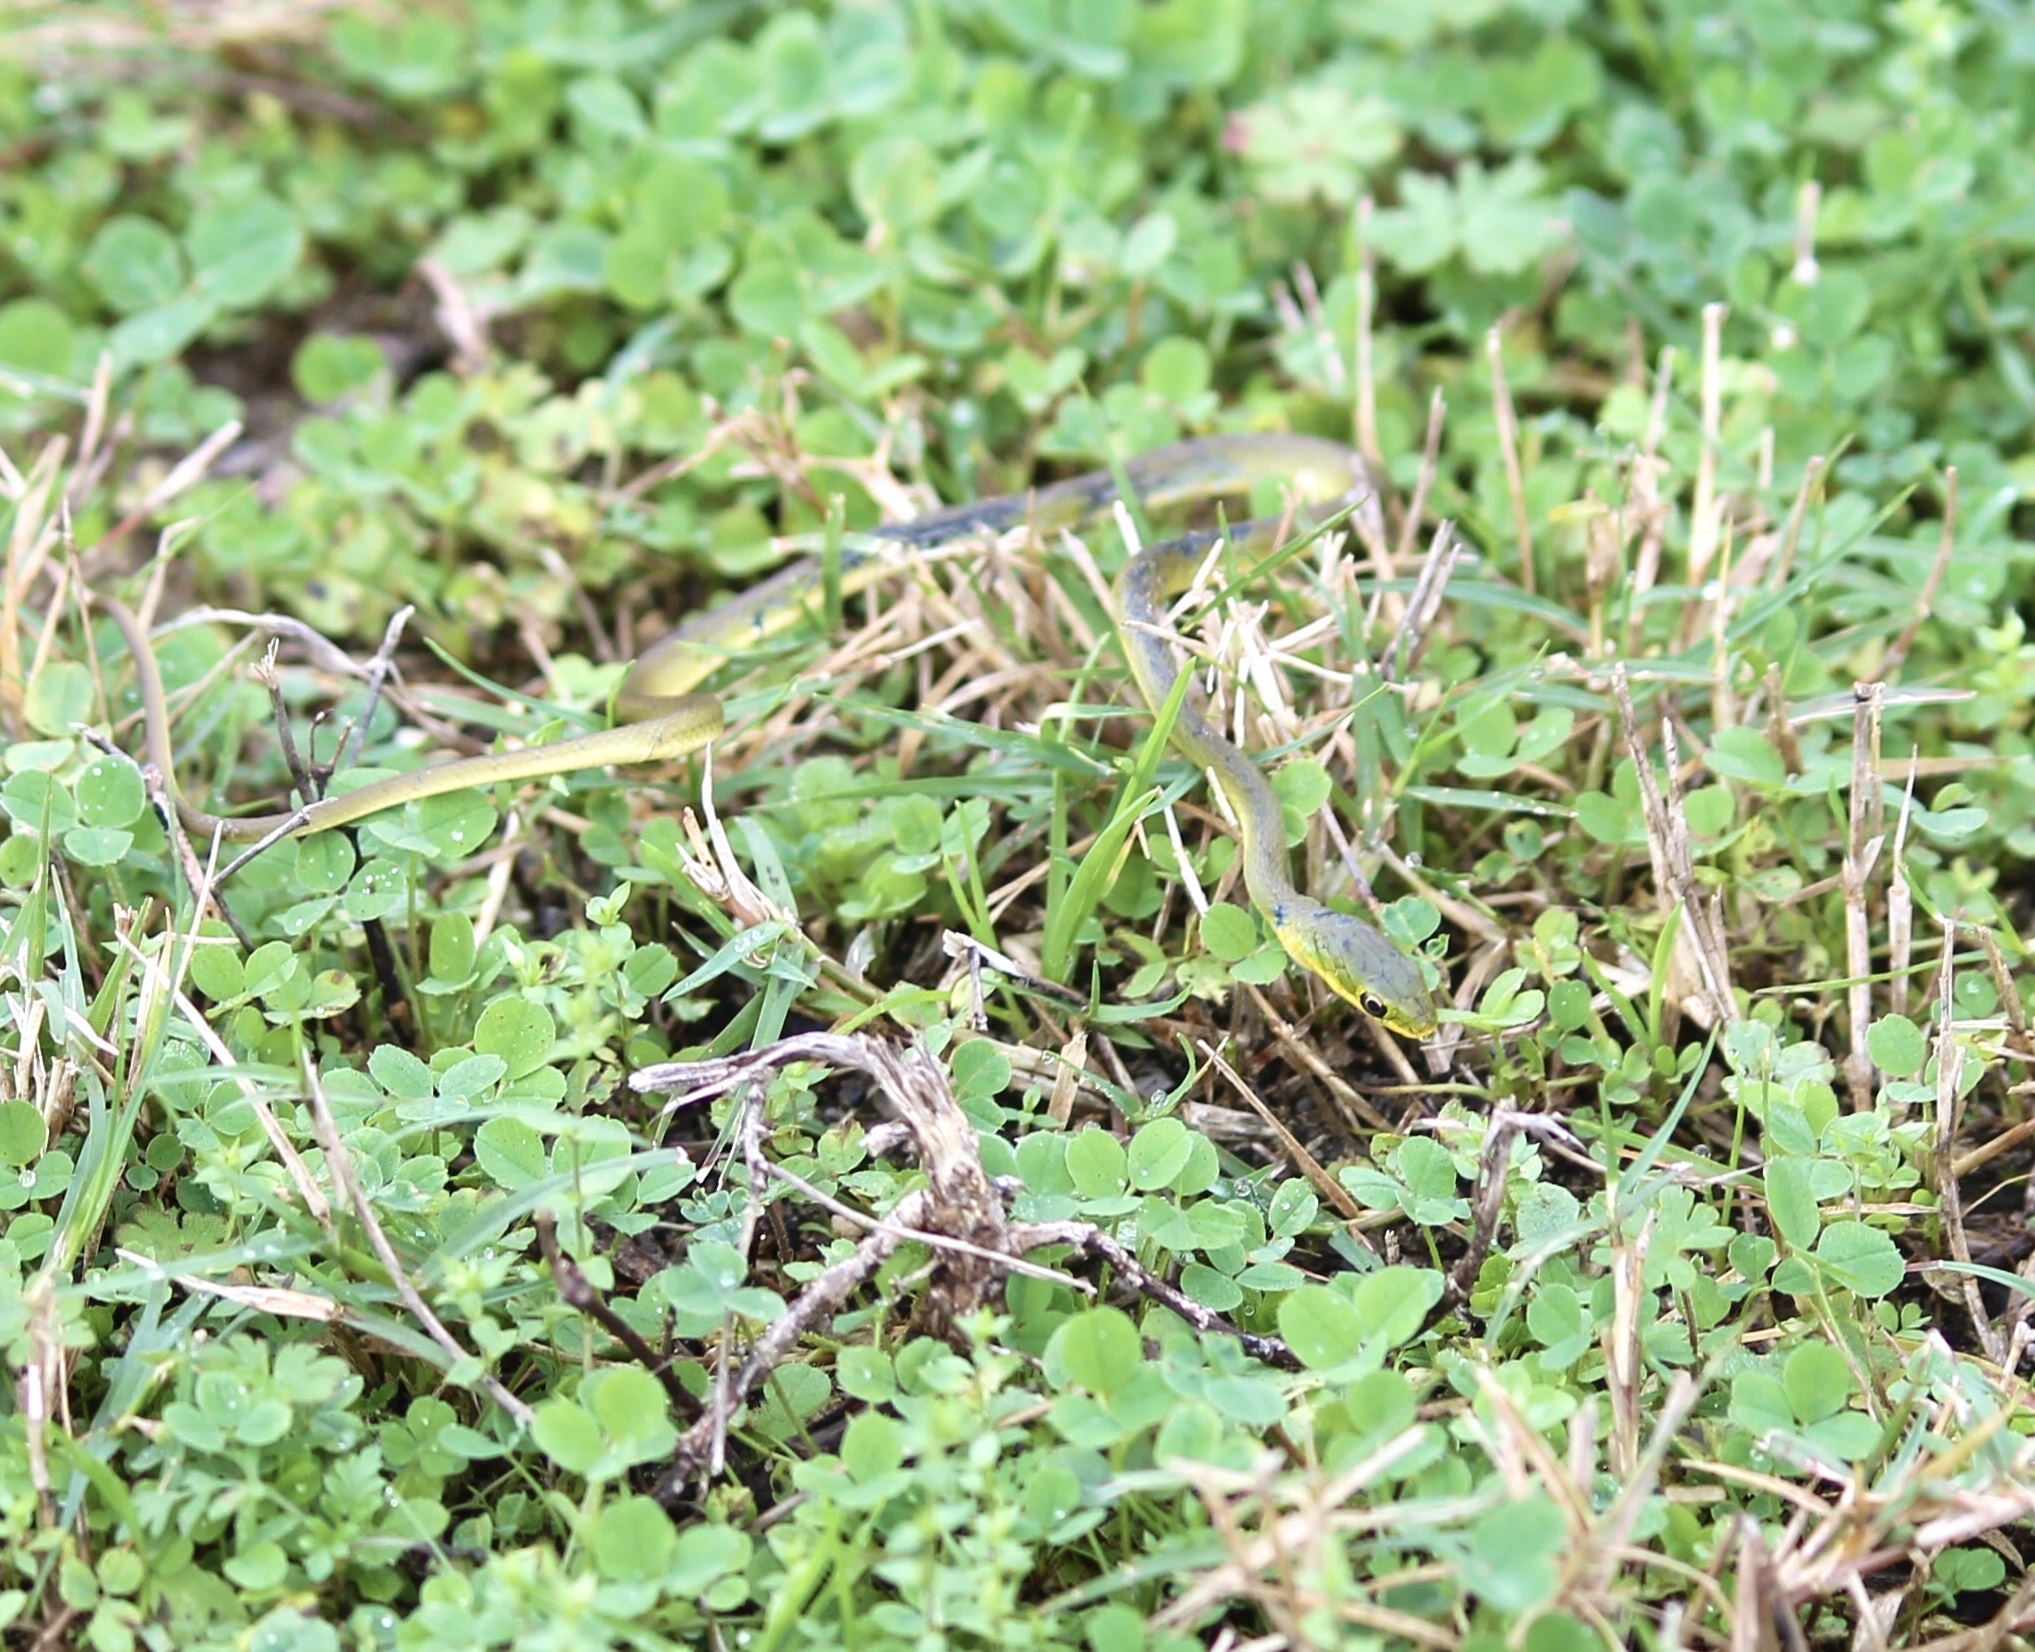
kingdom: Animalia
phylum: Chordata
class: Squamata
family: Colubridae
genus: Opheodrys
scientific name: Opheodrys aestivus
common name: Rough greensnake
